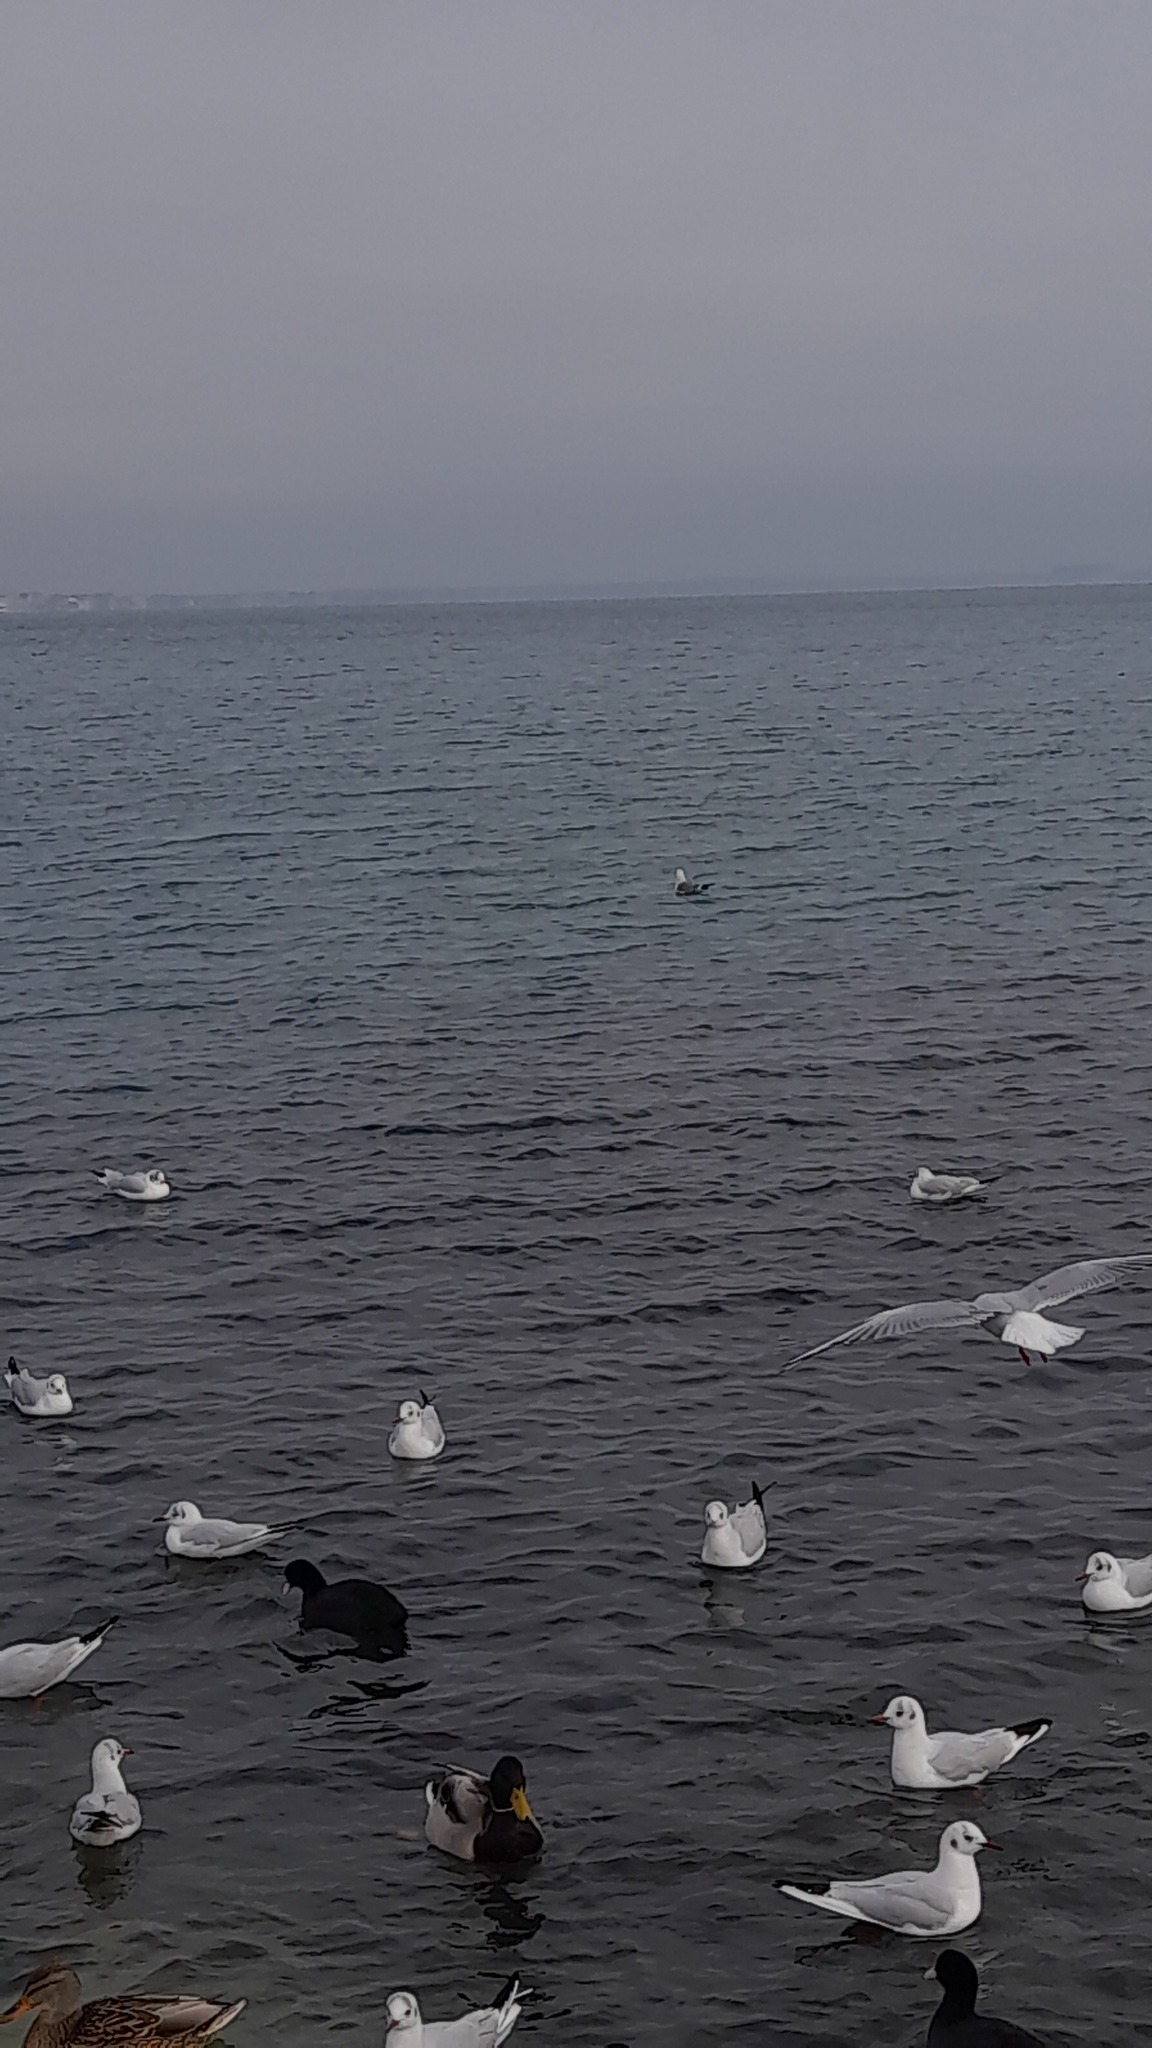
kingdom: Animalia
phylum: Chordata
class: Aves
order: Charadriiformes
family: Laridae
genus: Chroicocephalus
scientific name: Chroicocephalus ridibundus
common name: Black-headed gull
